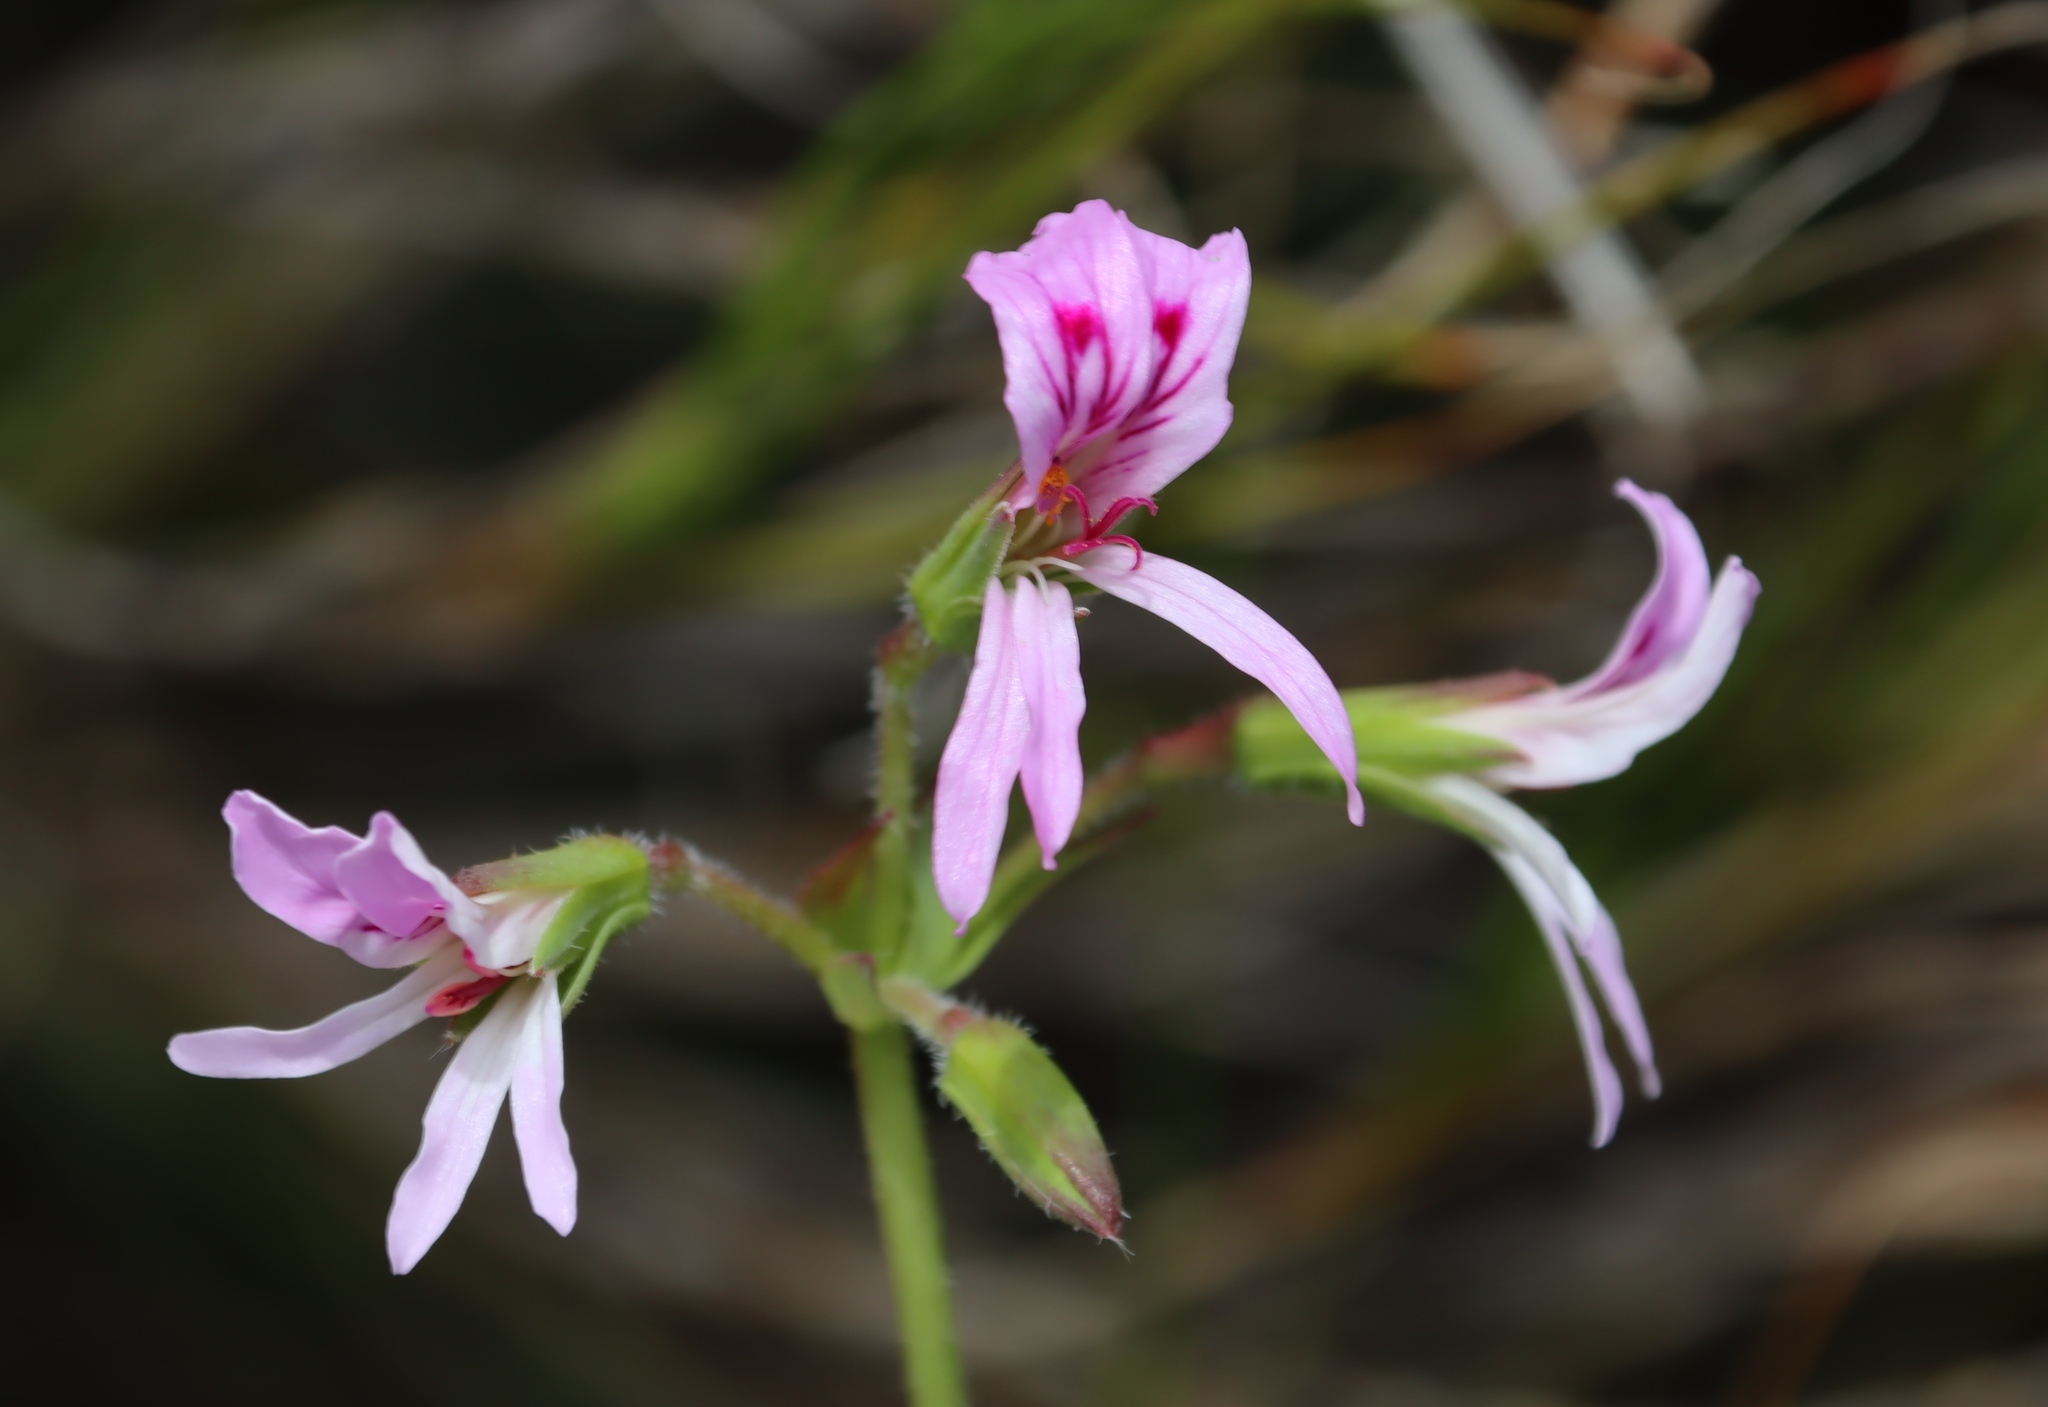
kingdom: Plantae
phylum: Tracheophyta
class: Magnoliopsida
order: Geraniales
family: Geraniaceae
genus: Pelargonium
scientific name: Pelargonium tabulare
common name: Table mountain pelargonium
